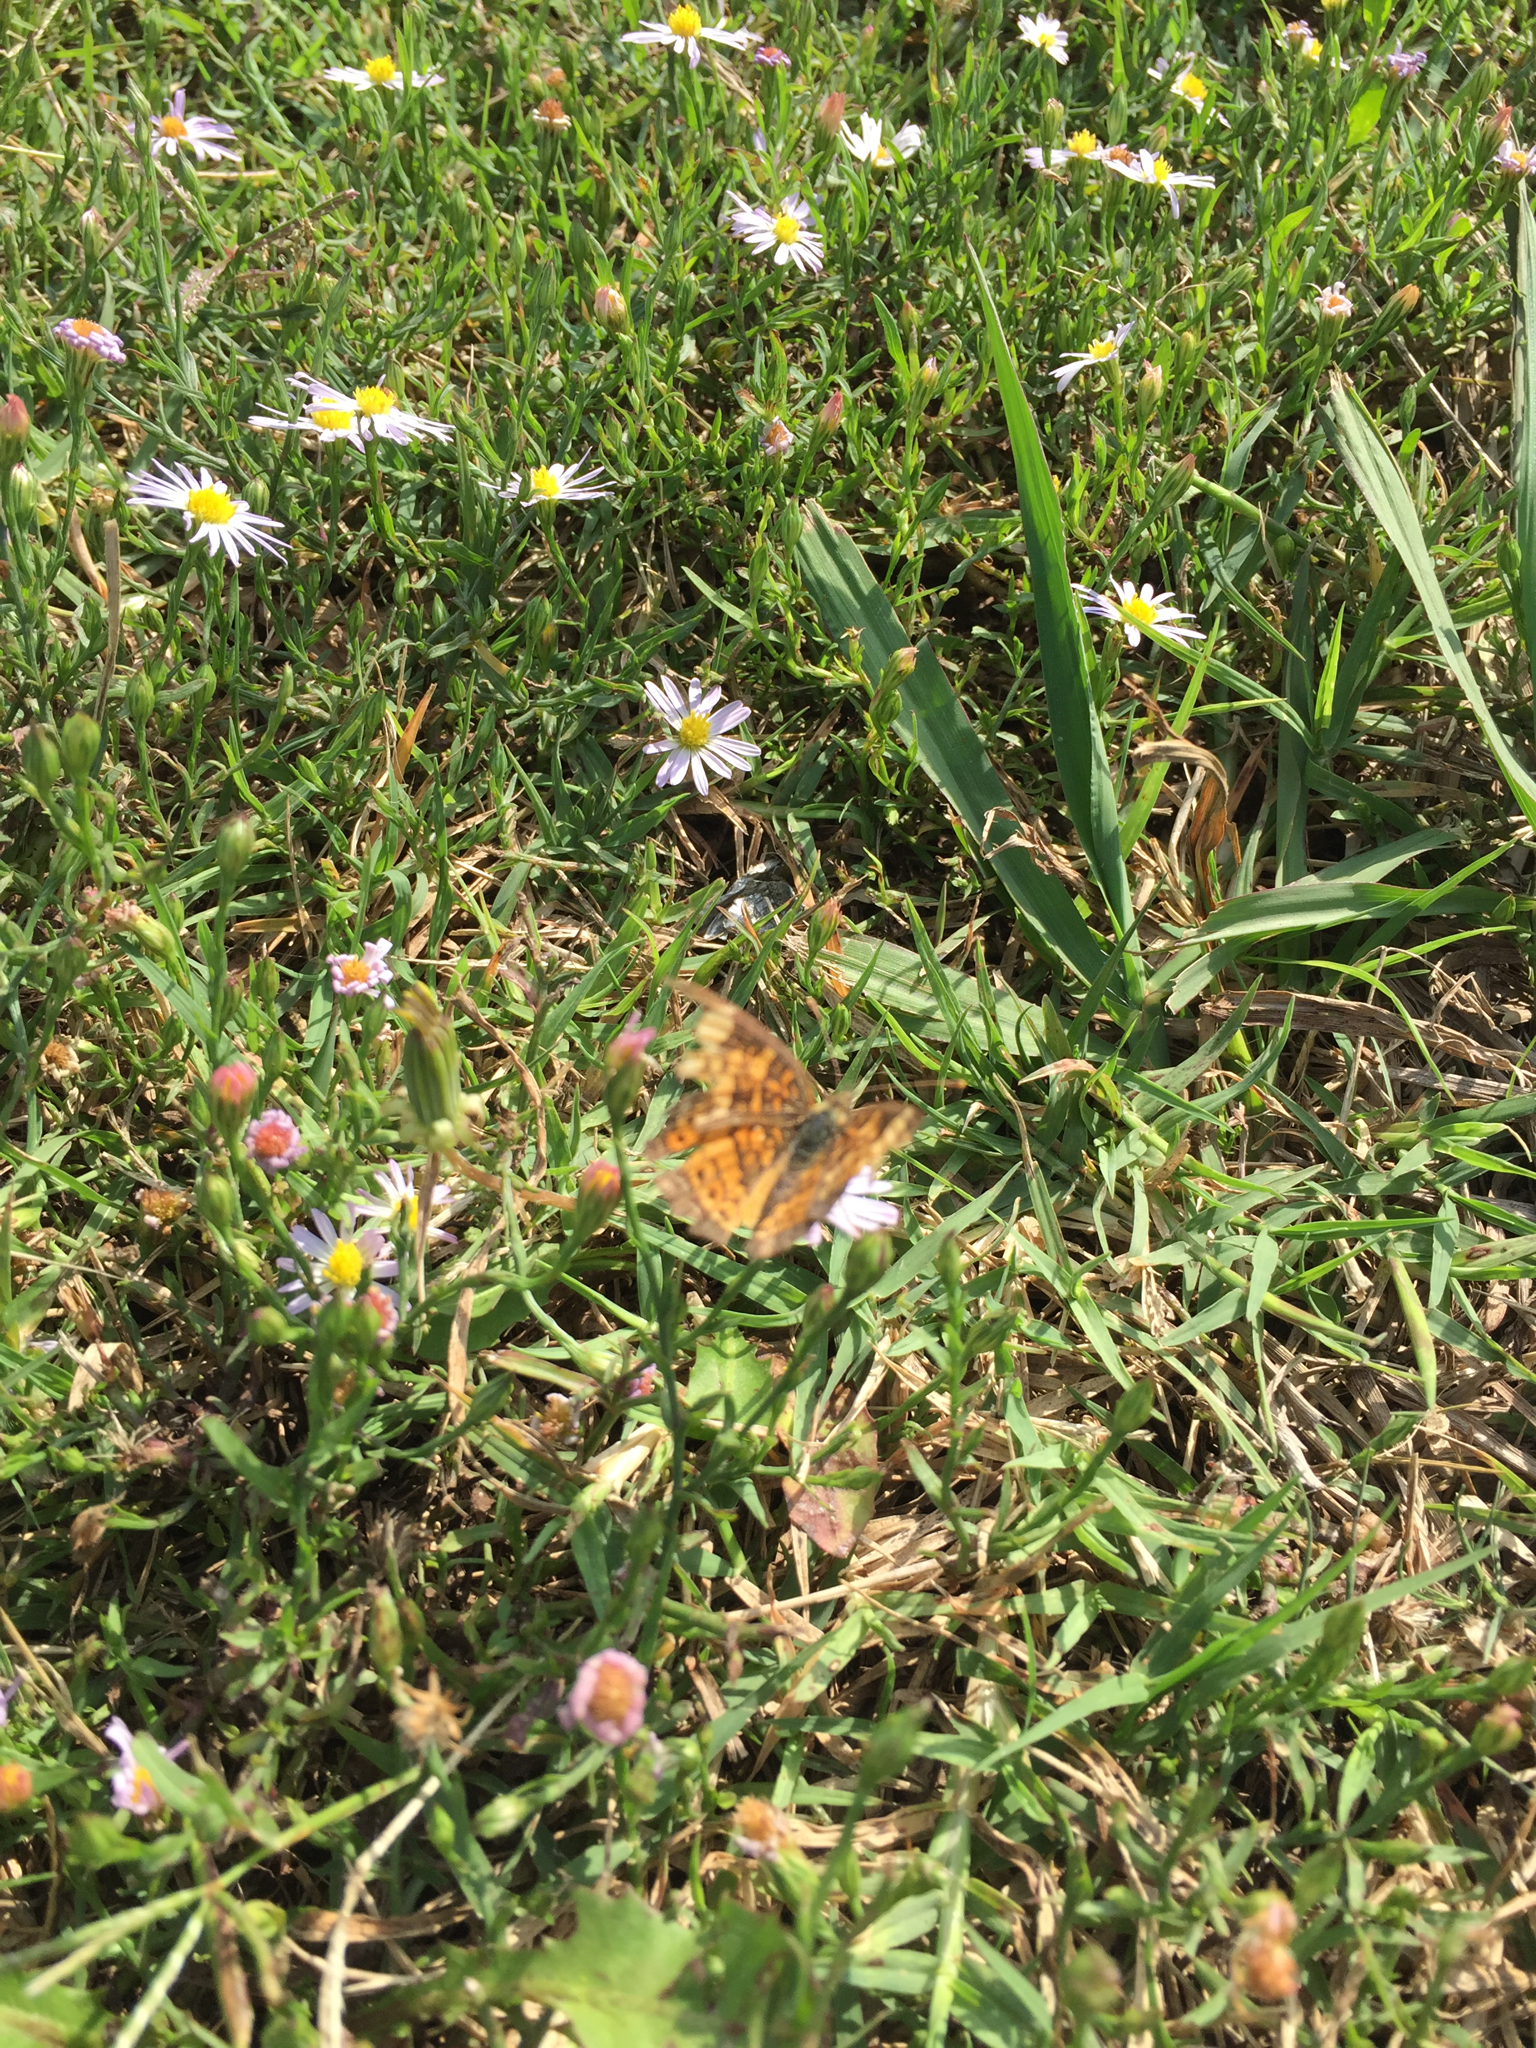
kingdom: Animalia
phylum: Arthropoda
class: Insecta
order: Lepidoptera
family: Nymphalidae
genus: Phyciodes
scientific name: Phyciodes tharos
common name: Pearl crescent
